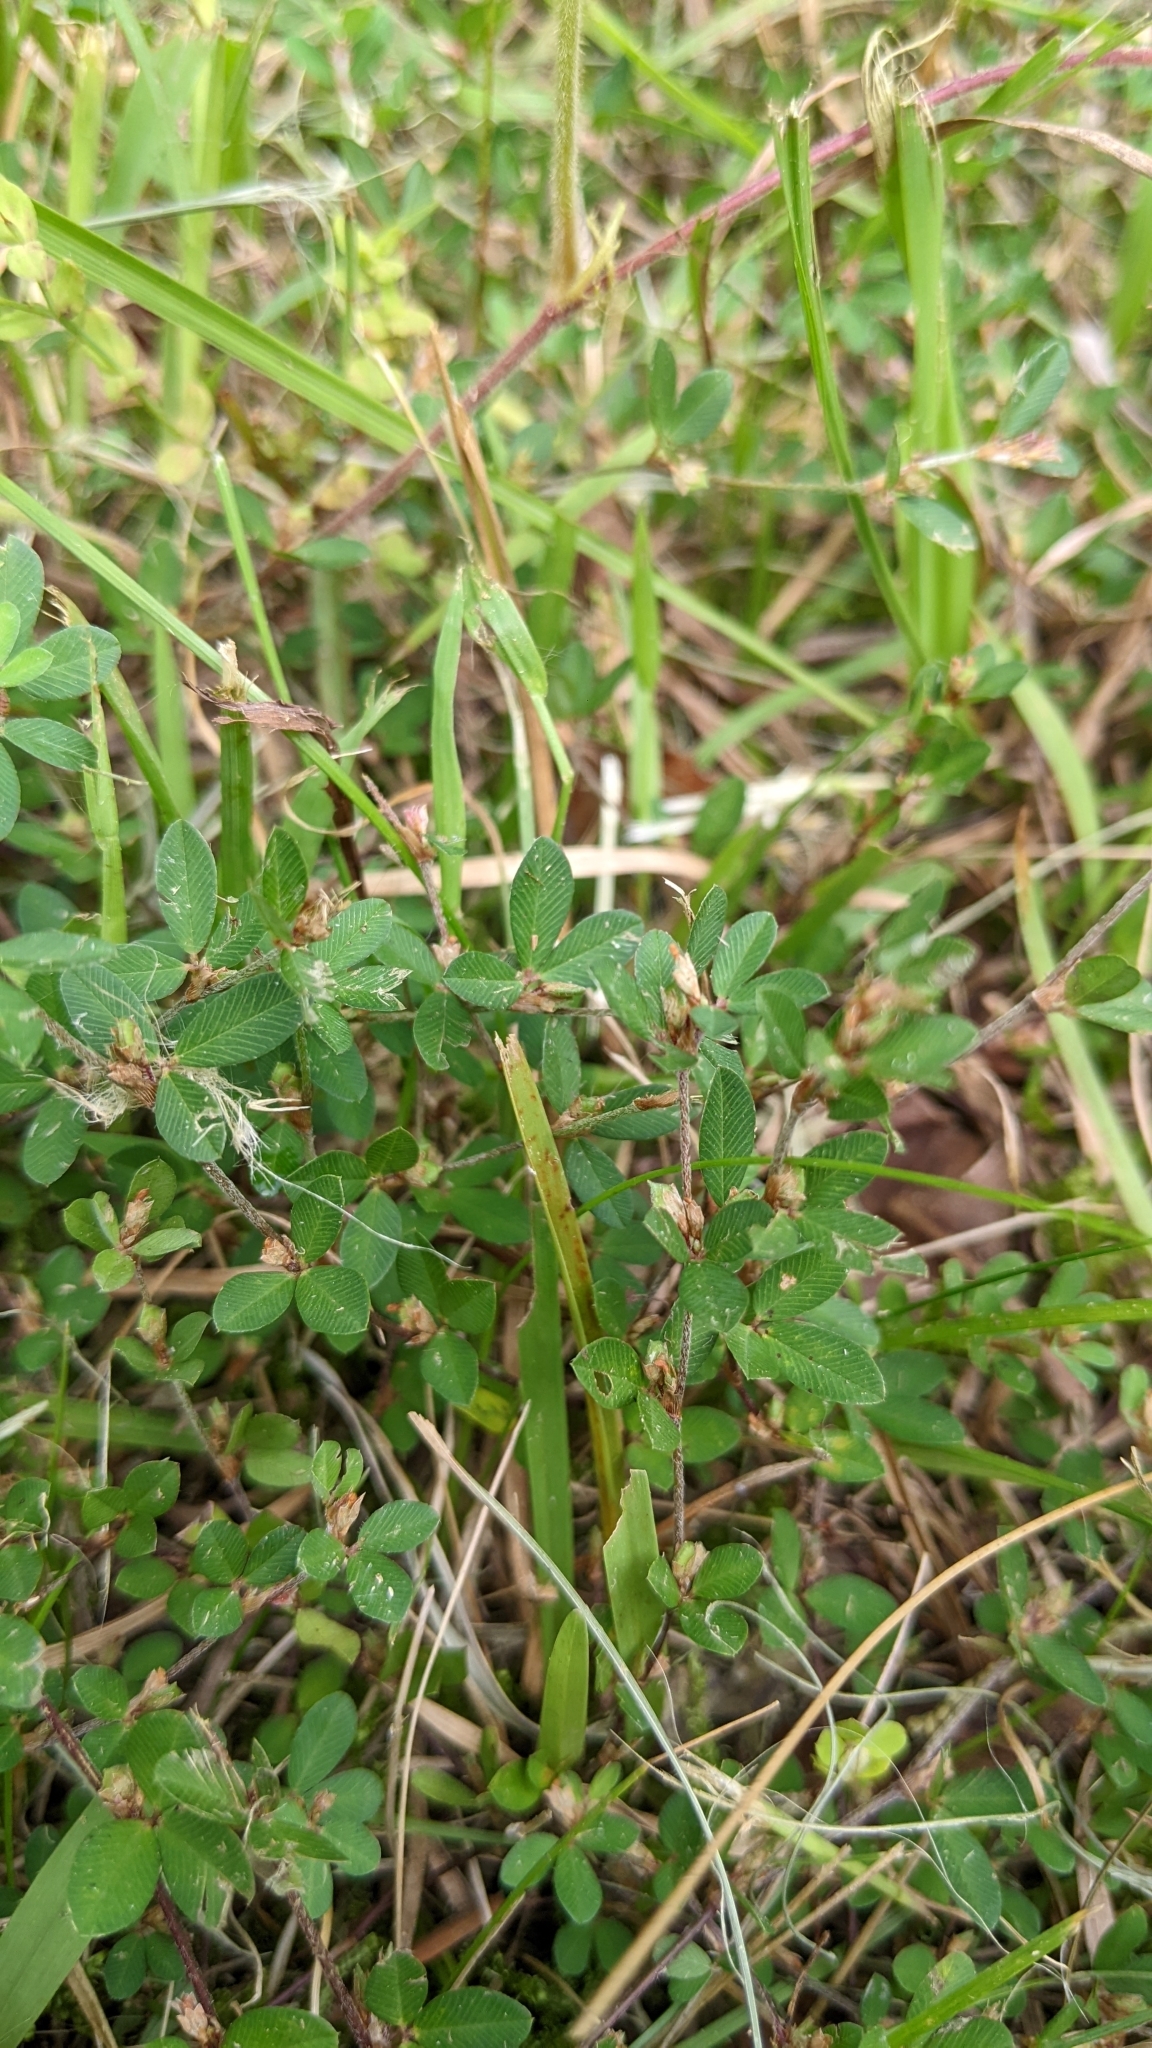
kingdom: Plantae
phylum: Tracheophyta
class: Magnoliopsida
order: Fabales
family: Fabaceae
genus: Kummerowia
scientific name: Kummerowia striata
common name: Japanese clover
